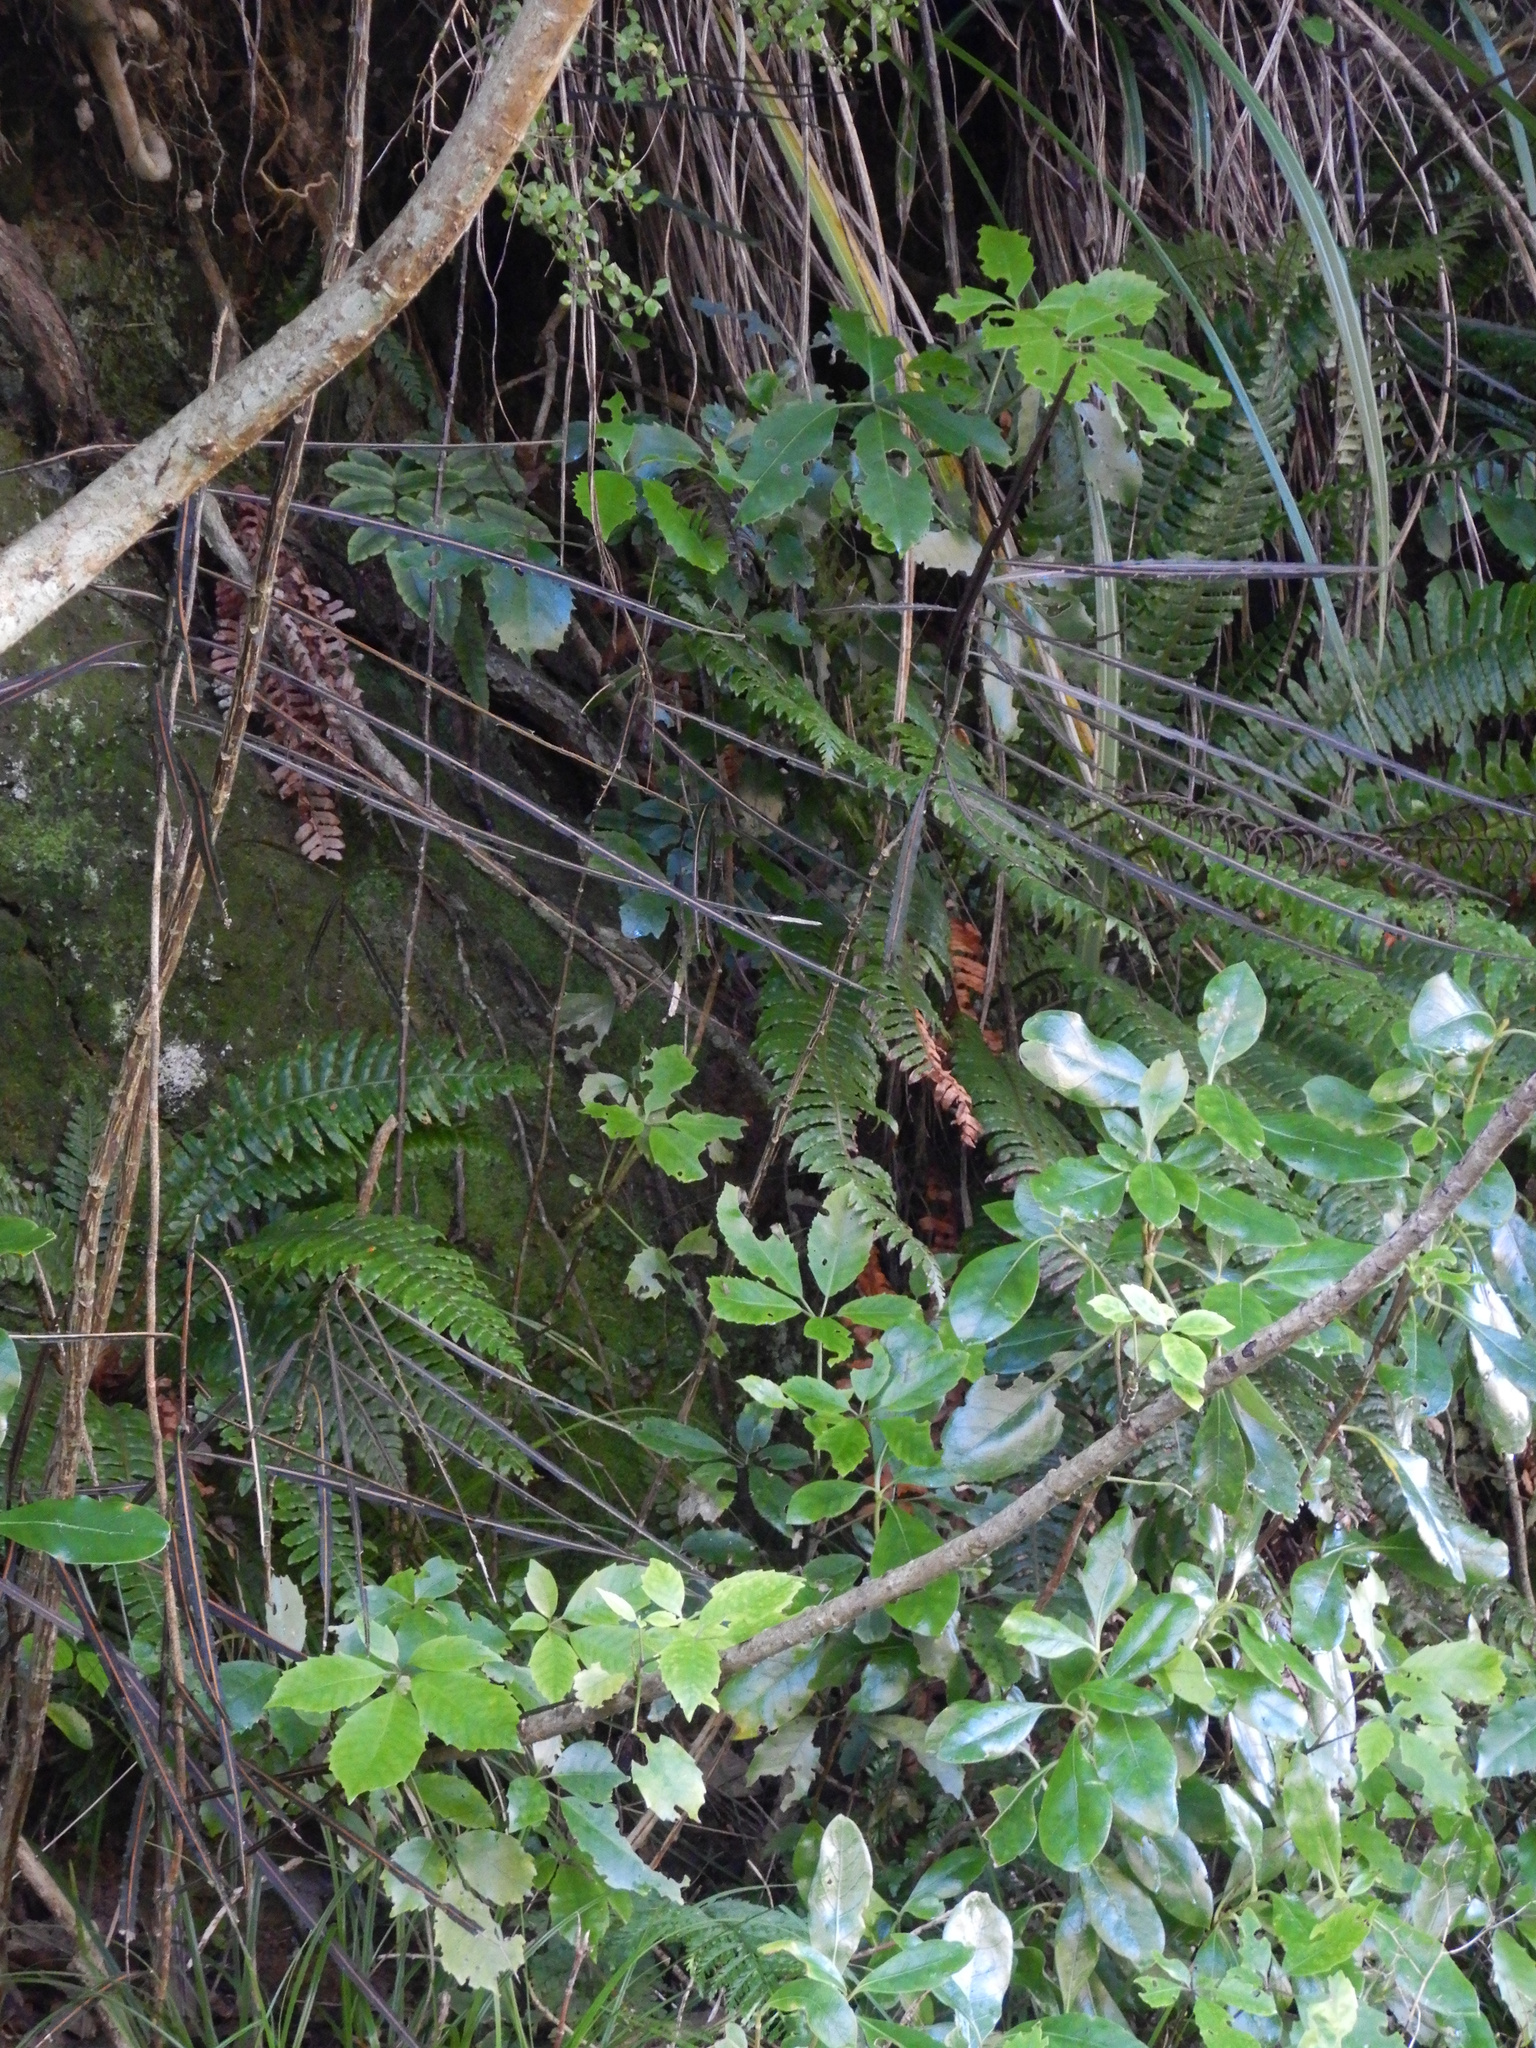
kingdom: Plantae
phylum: Tracheophyta
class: Magnoliopsida
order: Apiales
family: Araliaceae
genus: Pseudopanax
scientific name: Pseudopanax crassifolius
